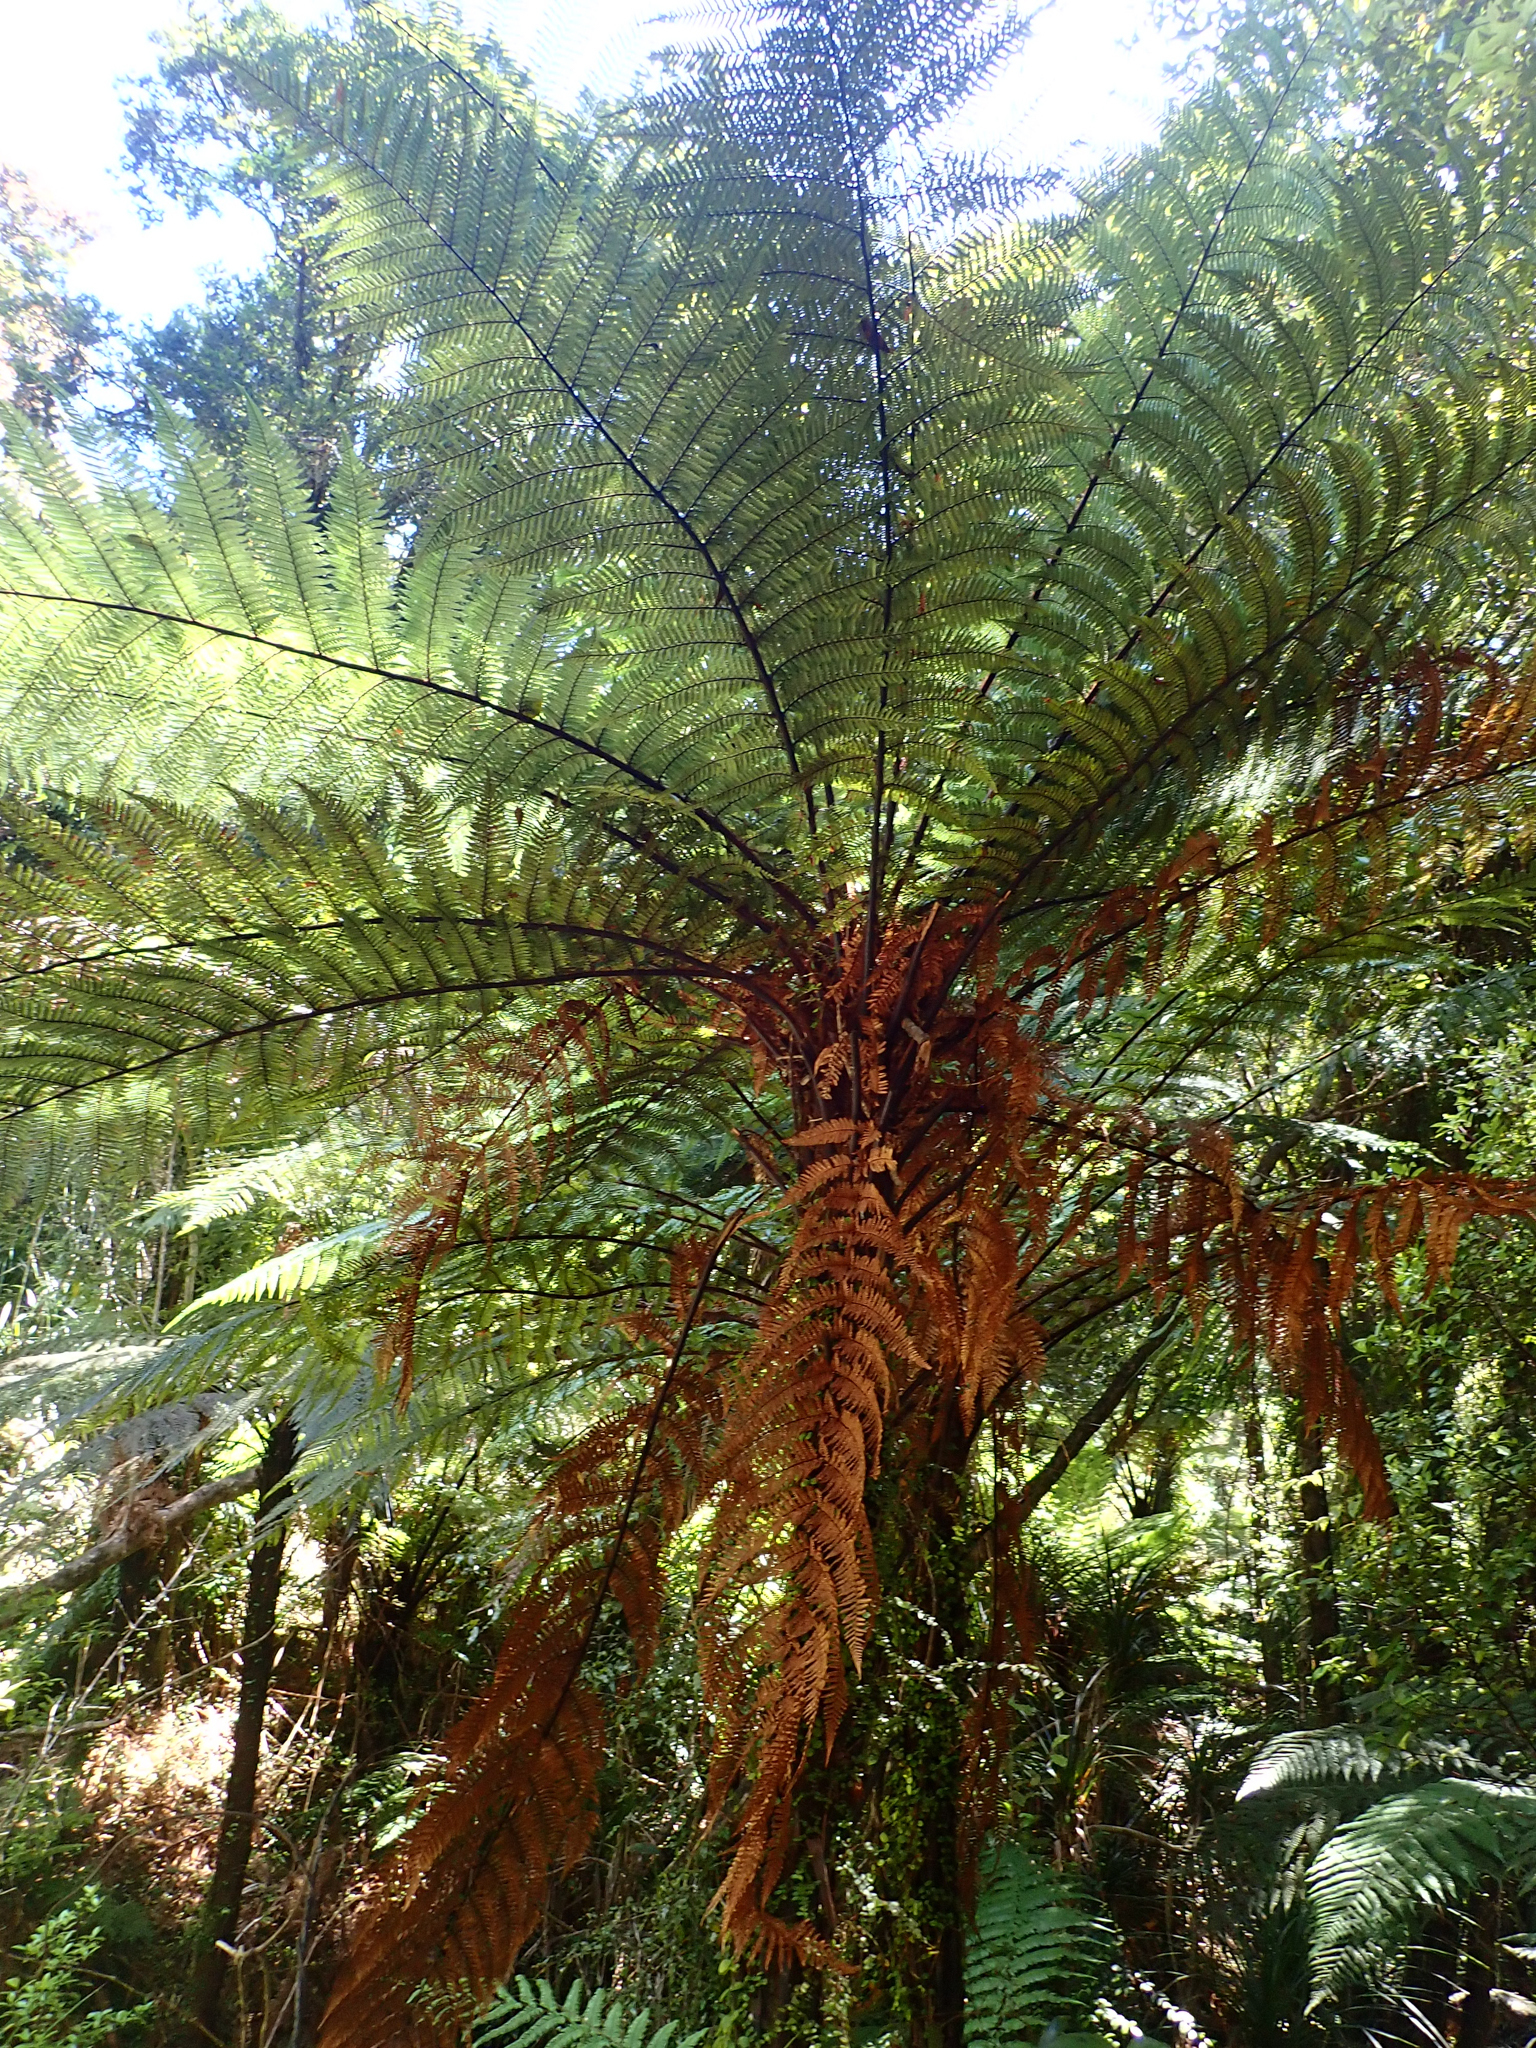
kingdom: Plantae
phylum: Tracheophyta
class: Polypodiopsida
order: Cyatheales
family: Dicksoniaceae
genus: Dicksonia
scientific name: Dicksonia squarrosa
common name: Hard treefern
